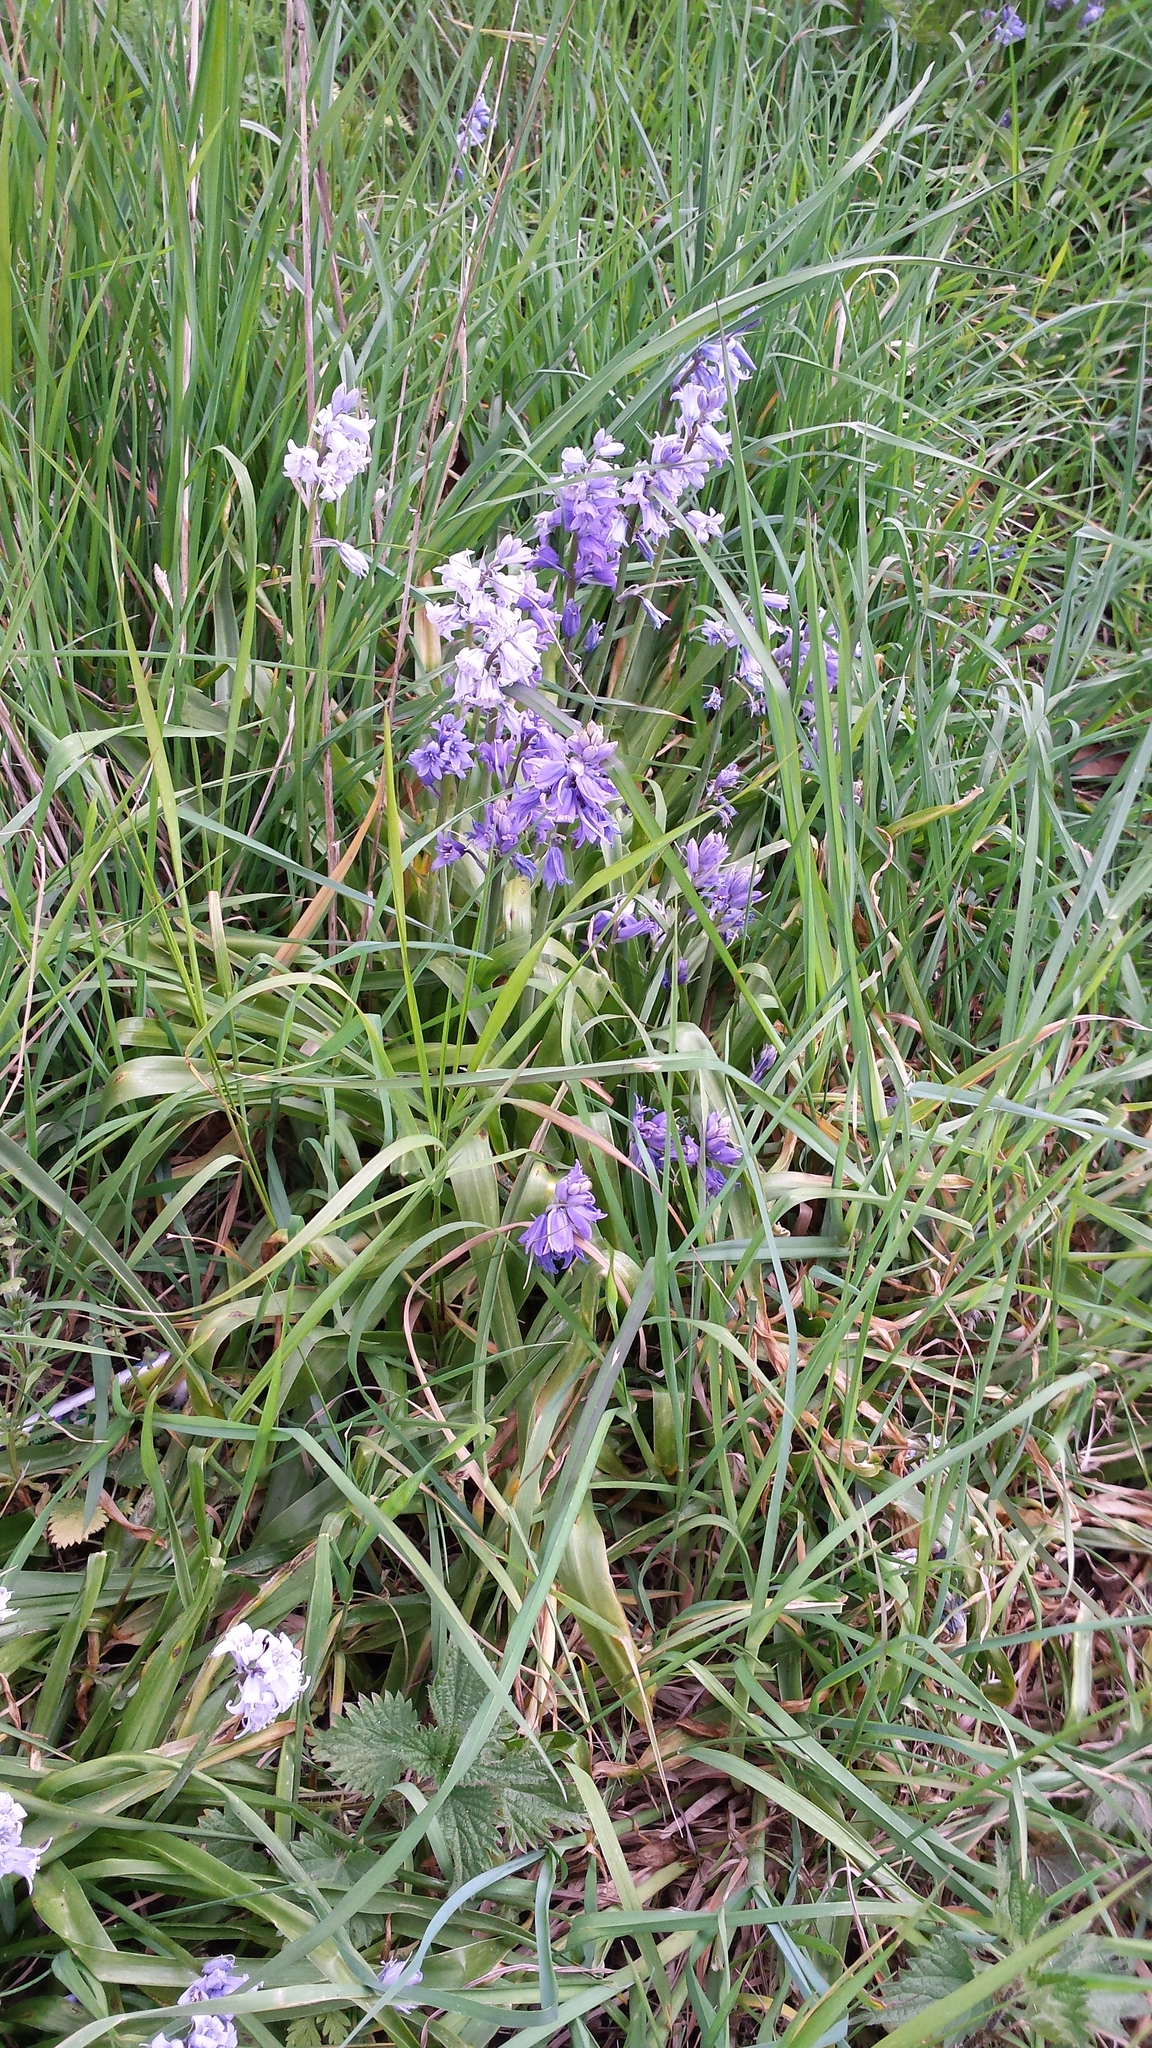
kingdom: Plantae
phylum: Tracheophyta
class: Liliopsida
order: Asparagales
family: Asparagaceae
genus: Hyacinthoides
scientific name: Hyacinthoides massartiana
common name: Hyacinthoides
